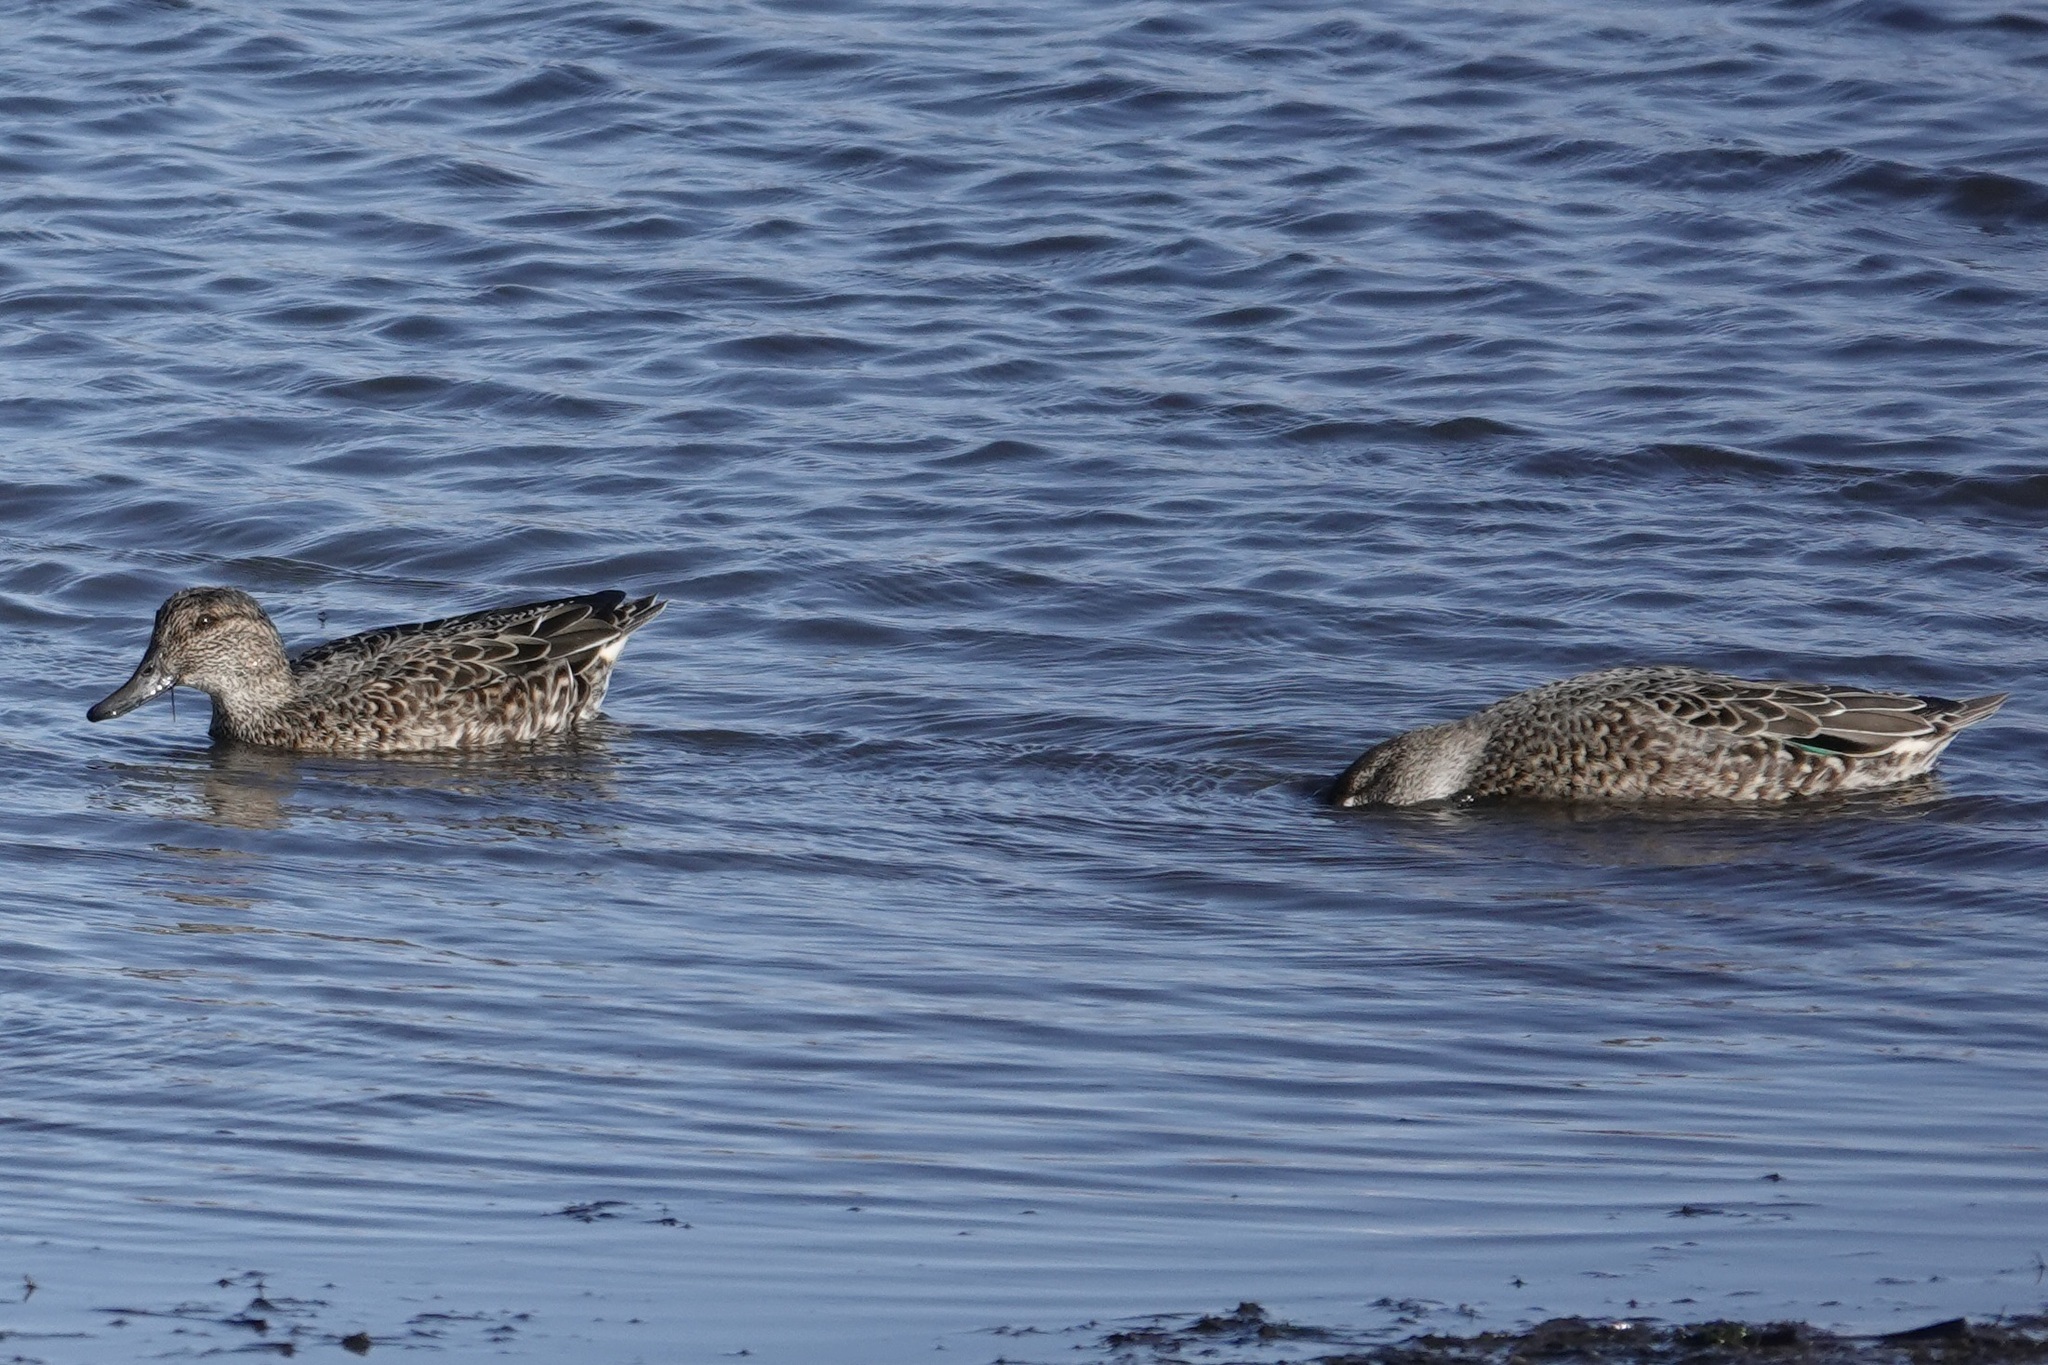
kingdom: Animalia
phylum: Chordata
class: Aves
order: Anseriformes
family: Anatidae
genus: Anas
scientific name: Anas crecca
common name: Eurasian teal
